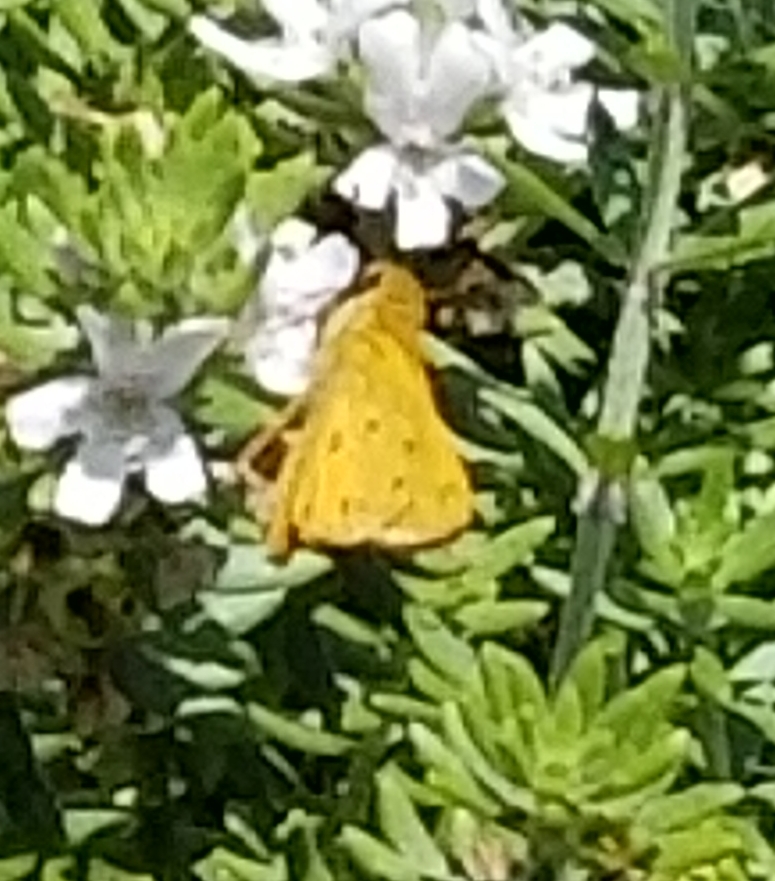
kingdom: Animalia
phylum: Arthropoda
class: Insecta
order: Lepidoptera
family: Hesperiidae
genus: Hylephila
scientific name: Hylephila phyleus
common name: Fiery skipper
